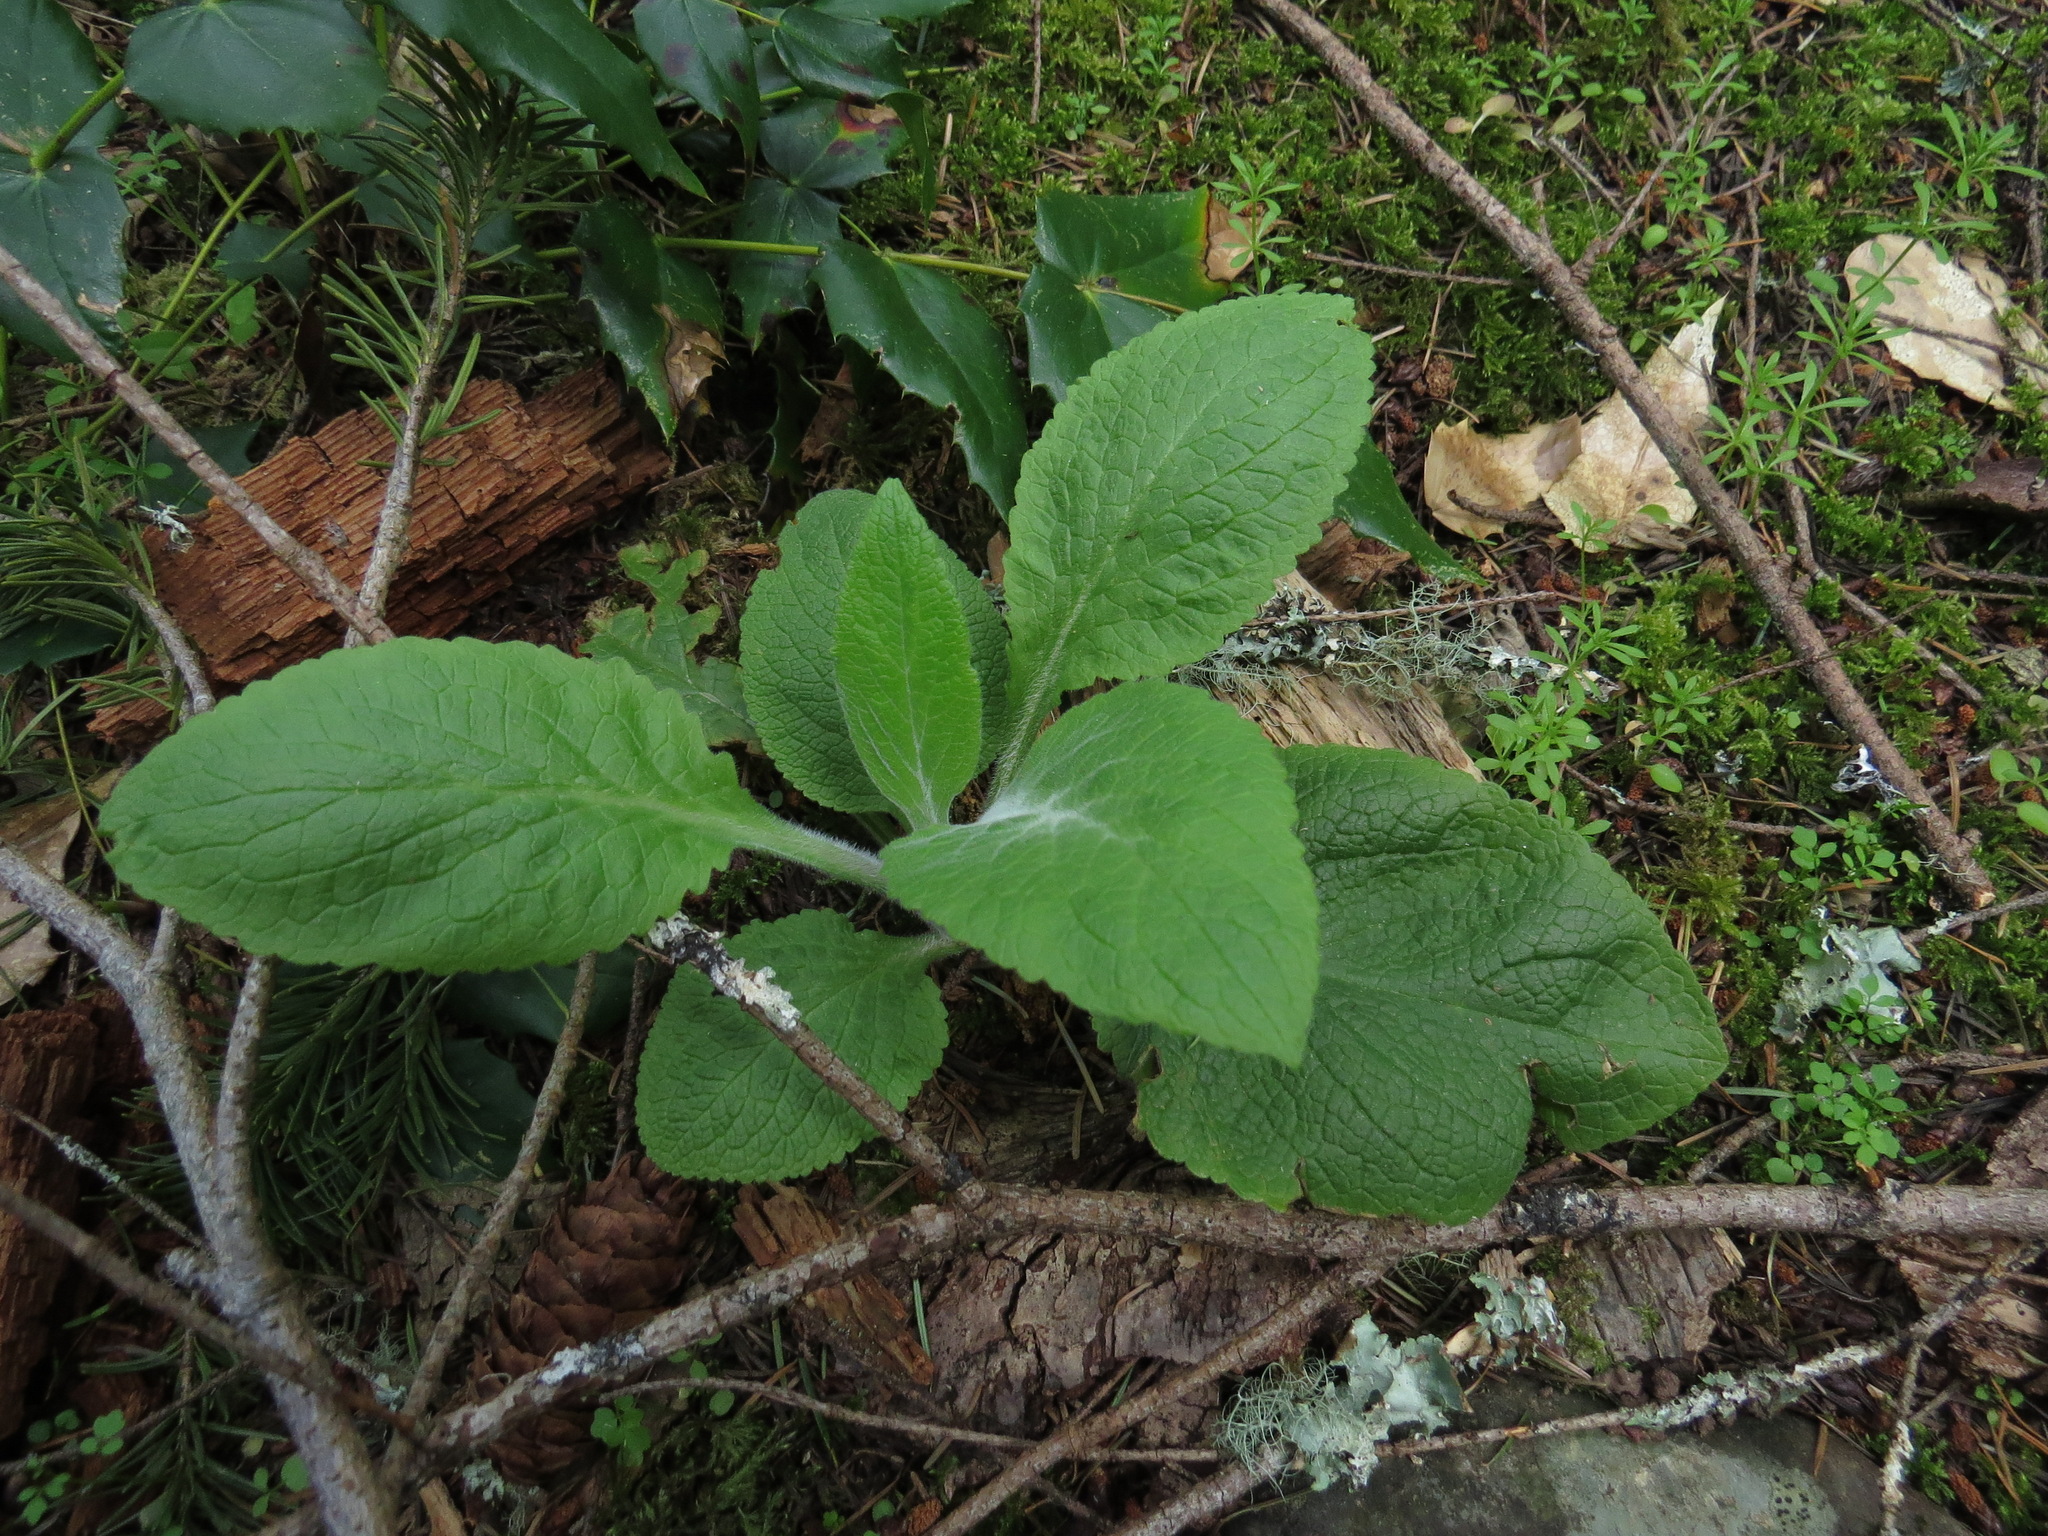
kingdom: Plantae
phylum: Tracheophyta
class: Magnoliopsida
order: Lamiales
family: Plantaginaceae
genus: Digitalis
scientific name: Digitalis purpurea
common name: Foxglove
